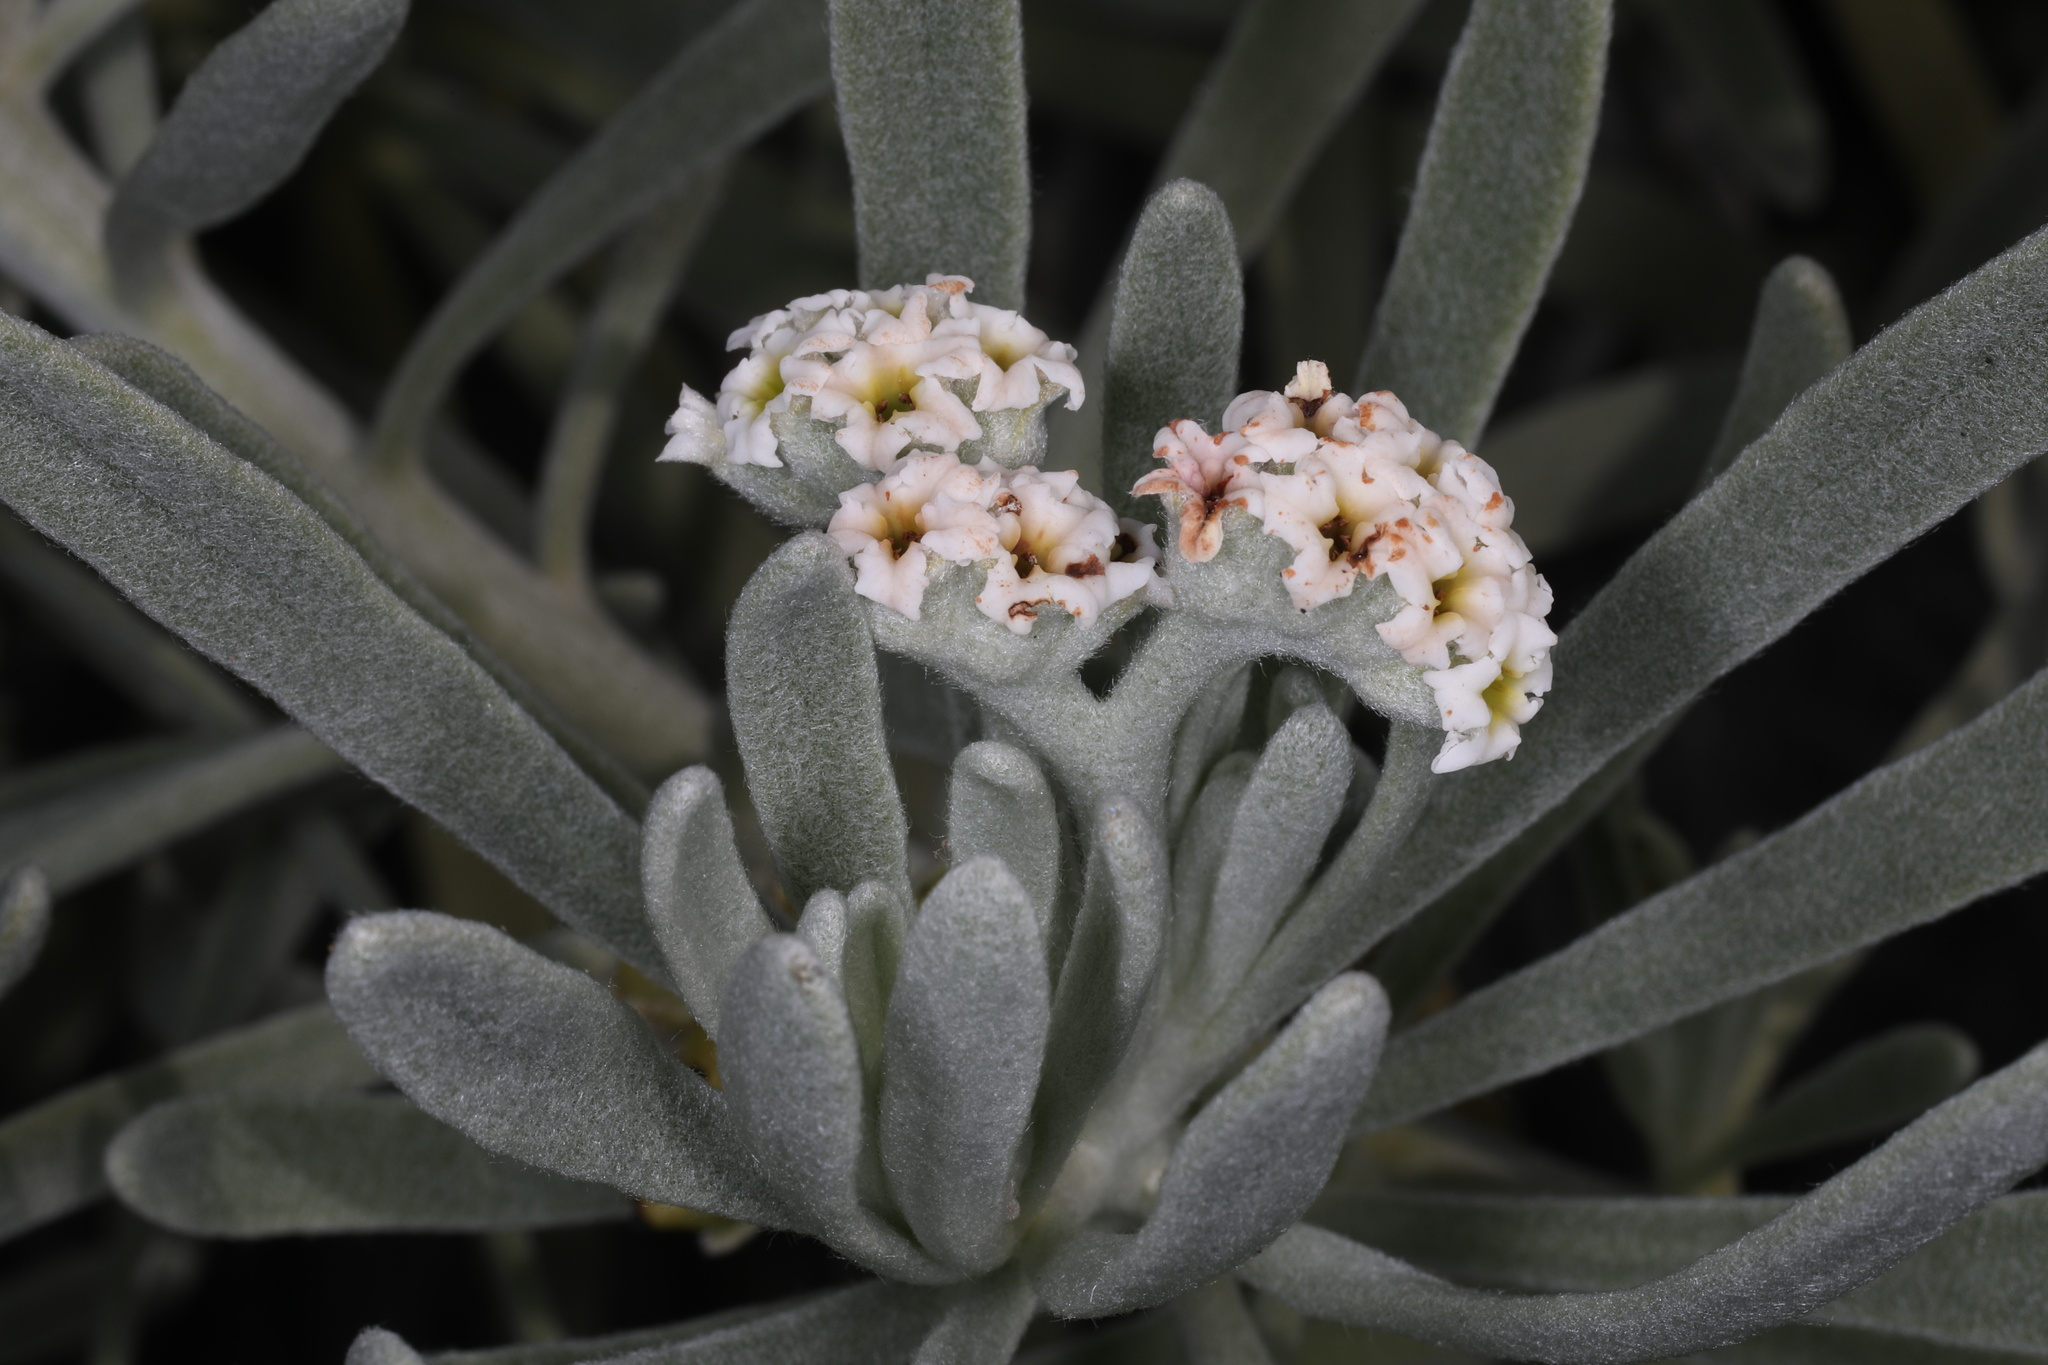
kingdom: Plantae
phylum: Tracheophyta
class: Magnoliopsida
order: Boraginales
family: Heliotropiaceae
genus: Tournefortia
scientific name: Tournefortia gnaphalodes
